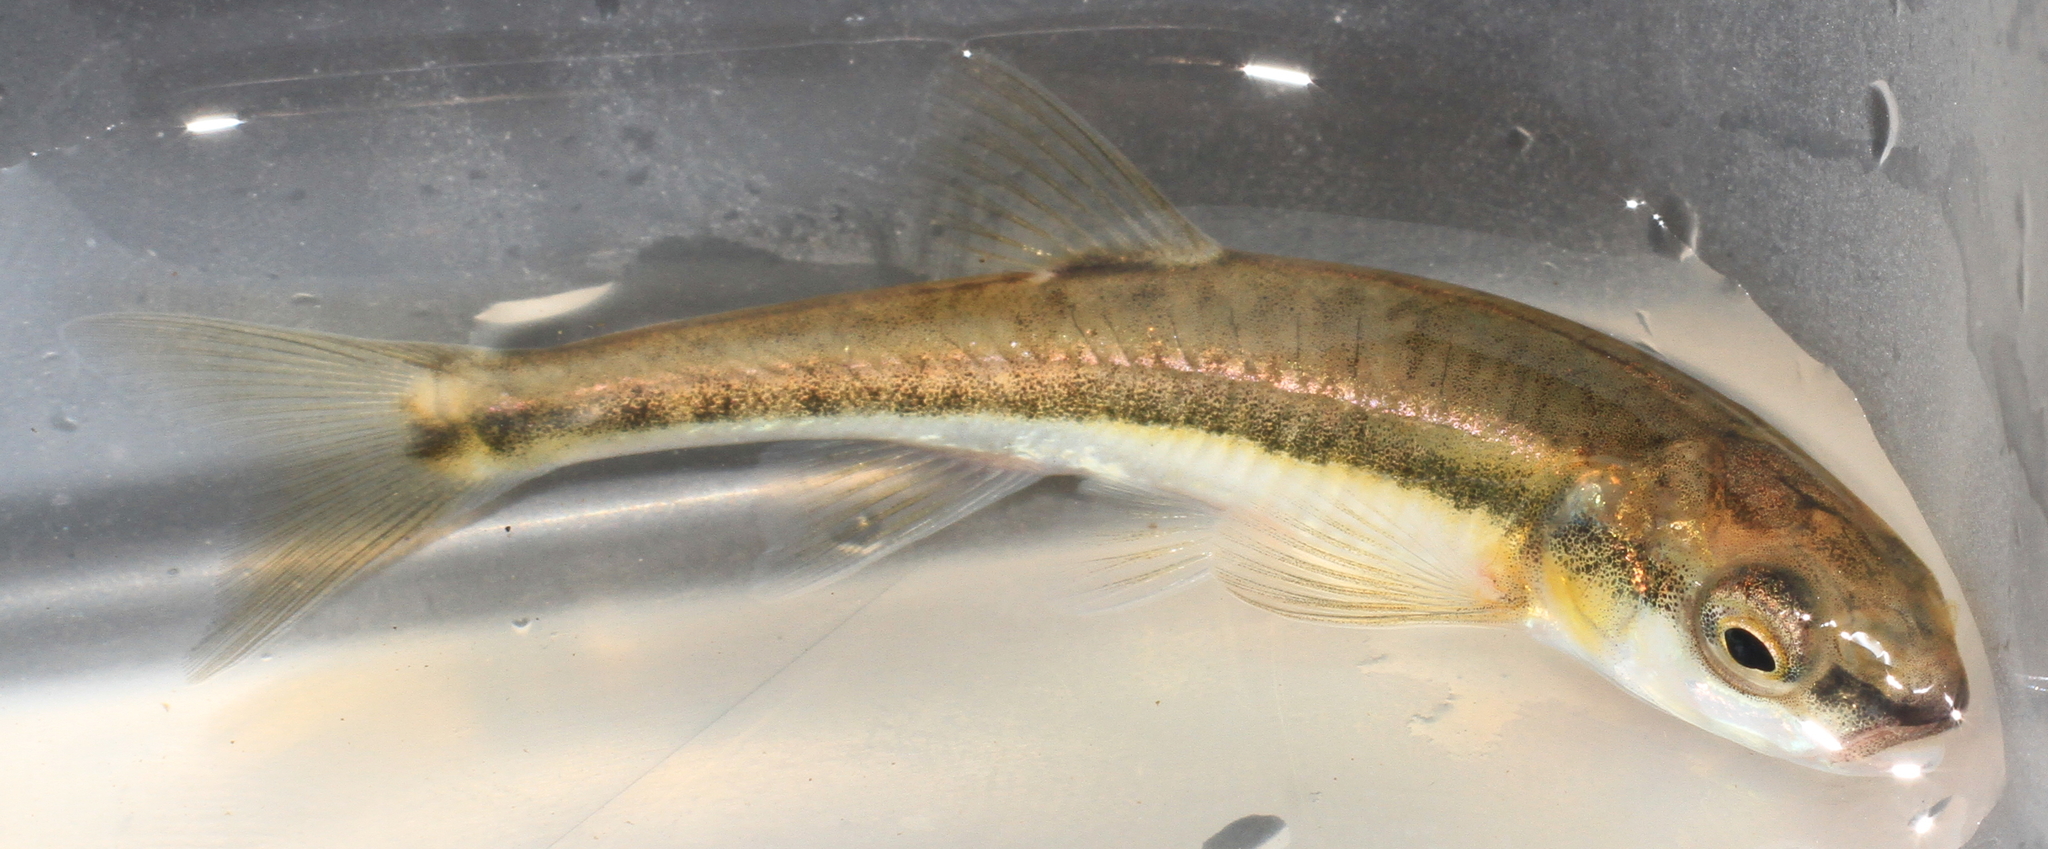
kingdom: Animalia
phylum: Chordata
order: Cypriniformes
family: Cyprinidae
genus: Phoxinus
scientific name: Phoxinus phoxinus
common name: Minnow
